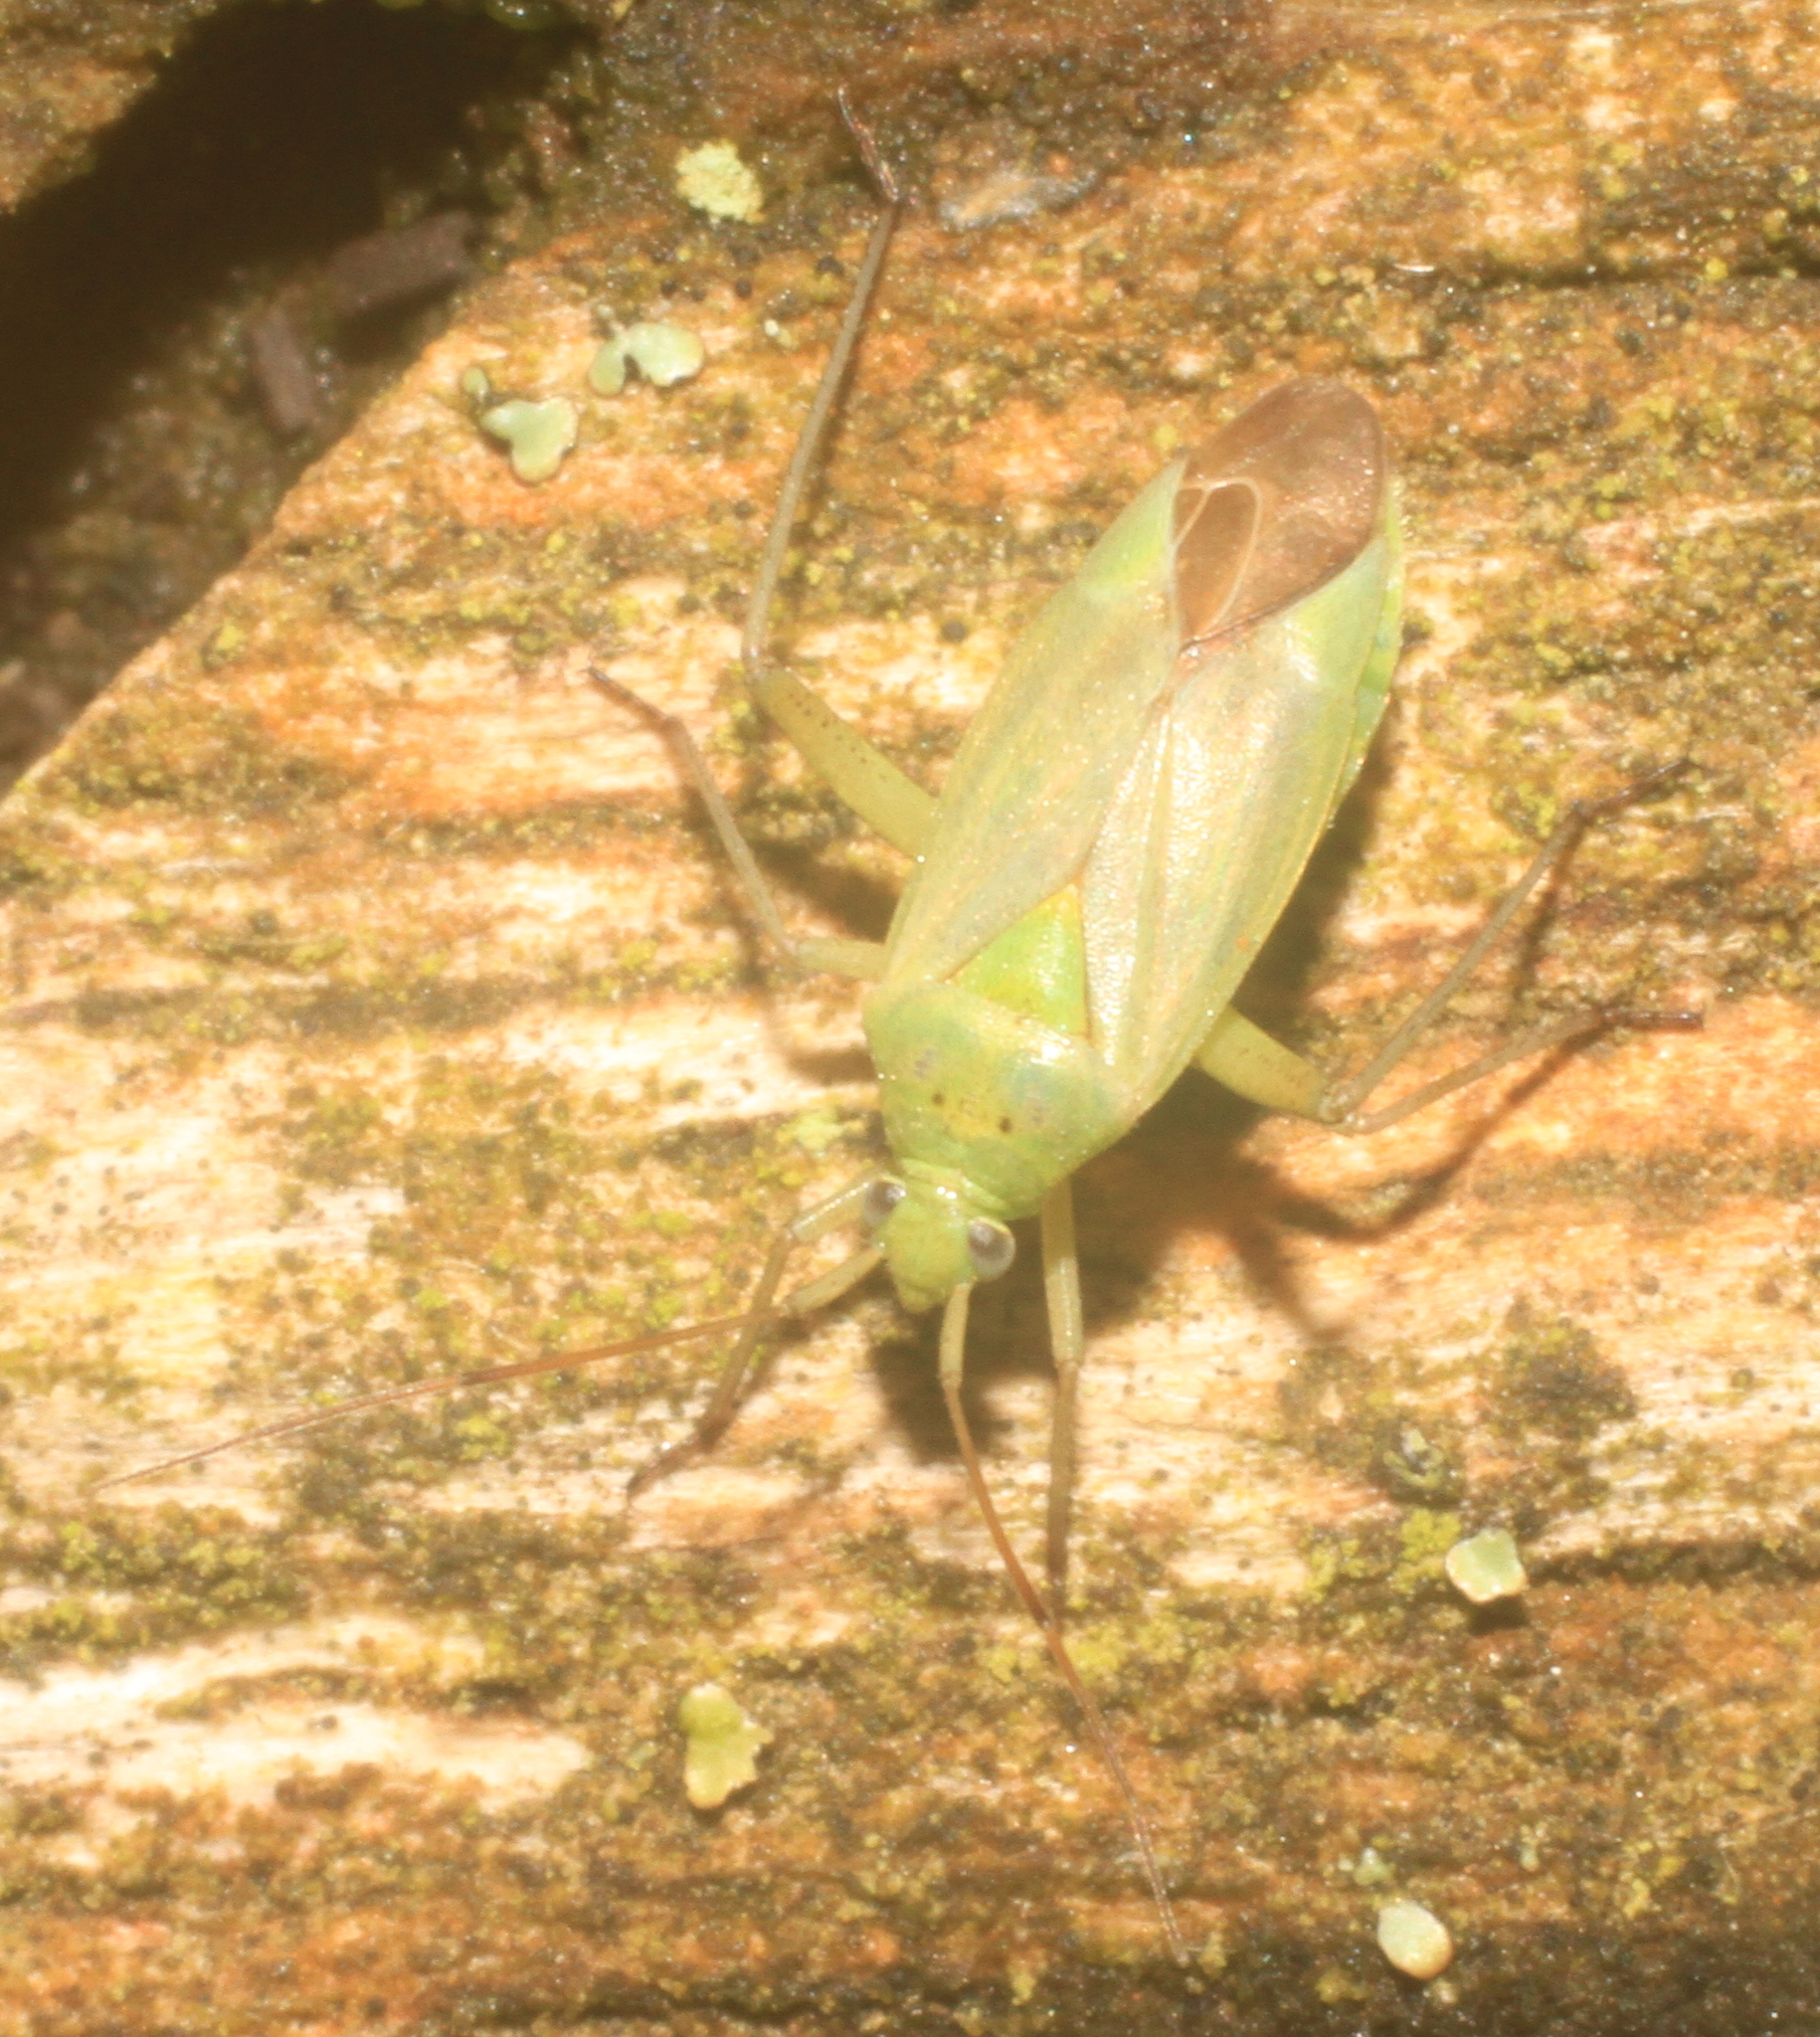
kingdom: Animalia
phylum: Arthropoda
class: Insecta
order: Hemiptera
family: Miridae
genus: Closterotomus
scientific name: Closterotomus norvegicus
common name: Plant bug
